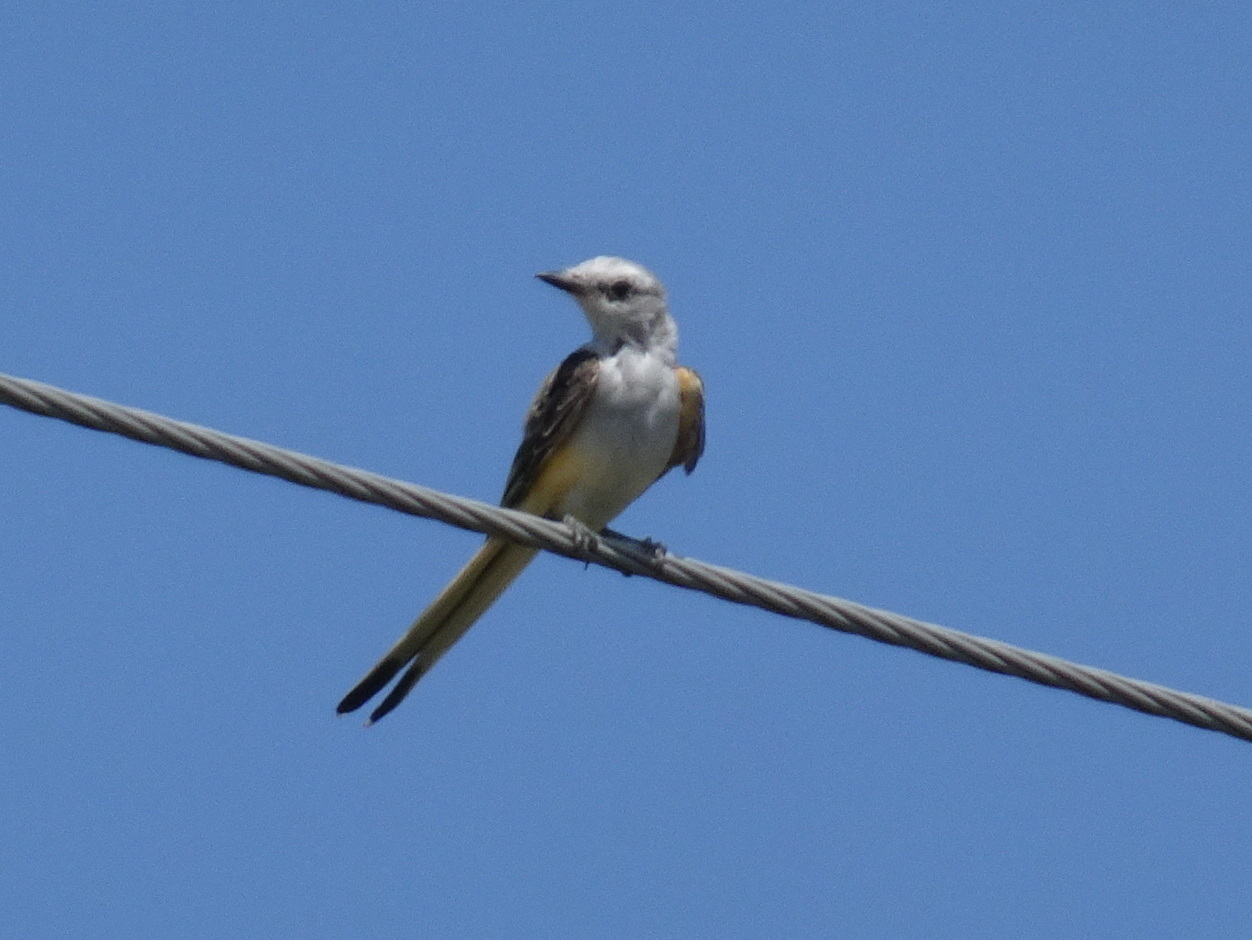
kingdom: Animalia
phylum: Chordata
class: Aves
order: Passeriformes
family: Tyrannidae
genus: Tyrannus
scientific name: Tyrannus forficatus
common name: Scissor-tailed flycatcher
